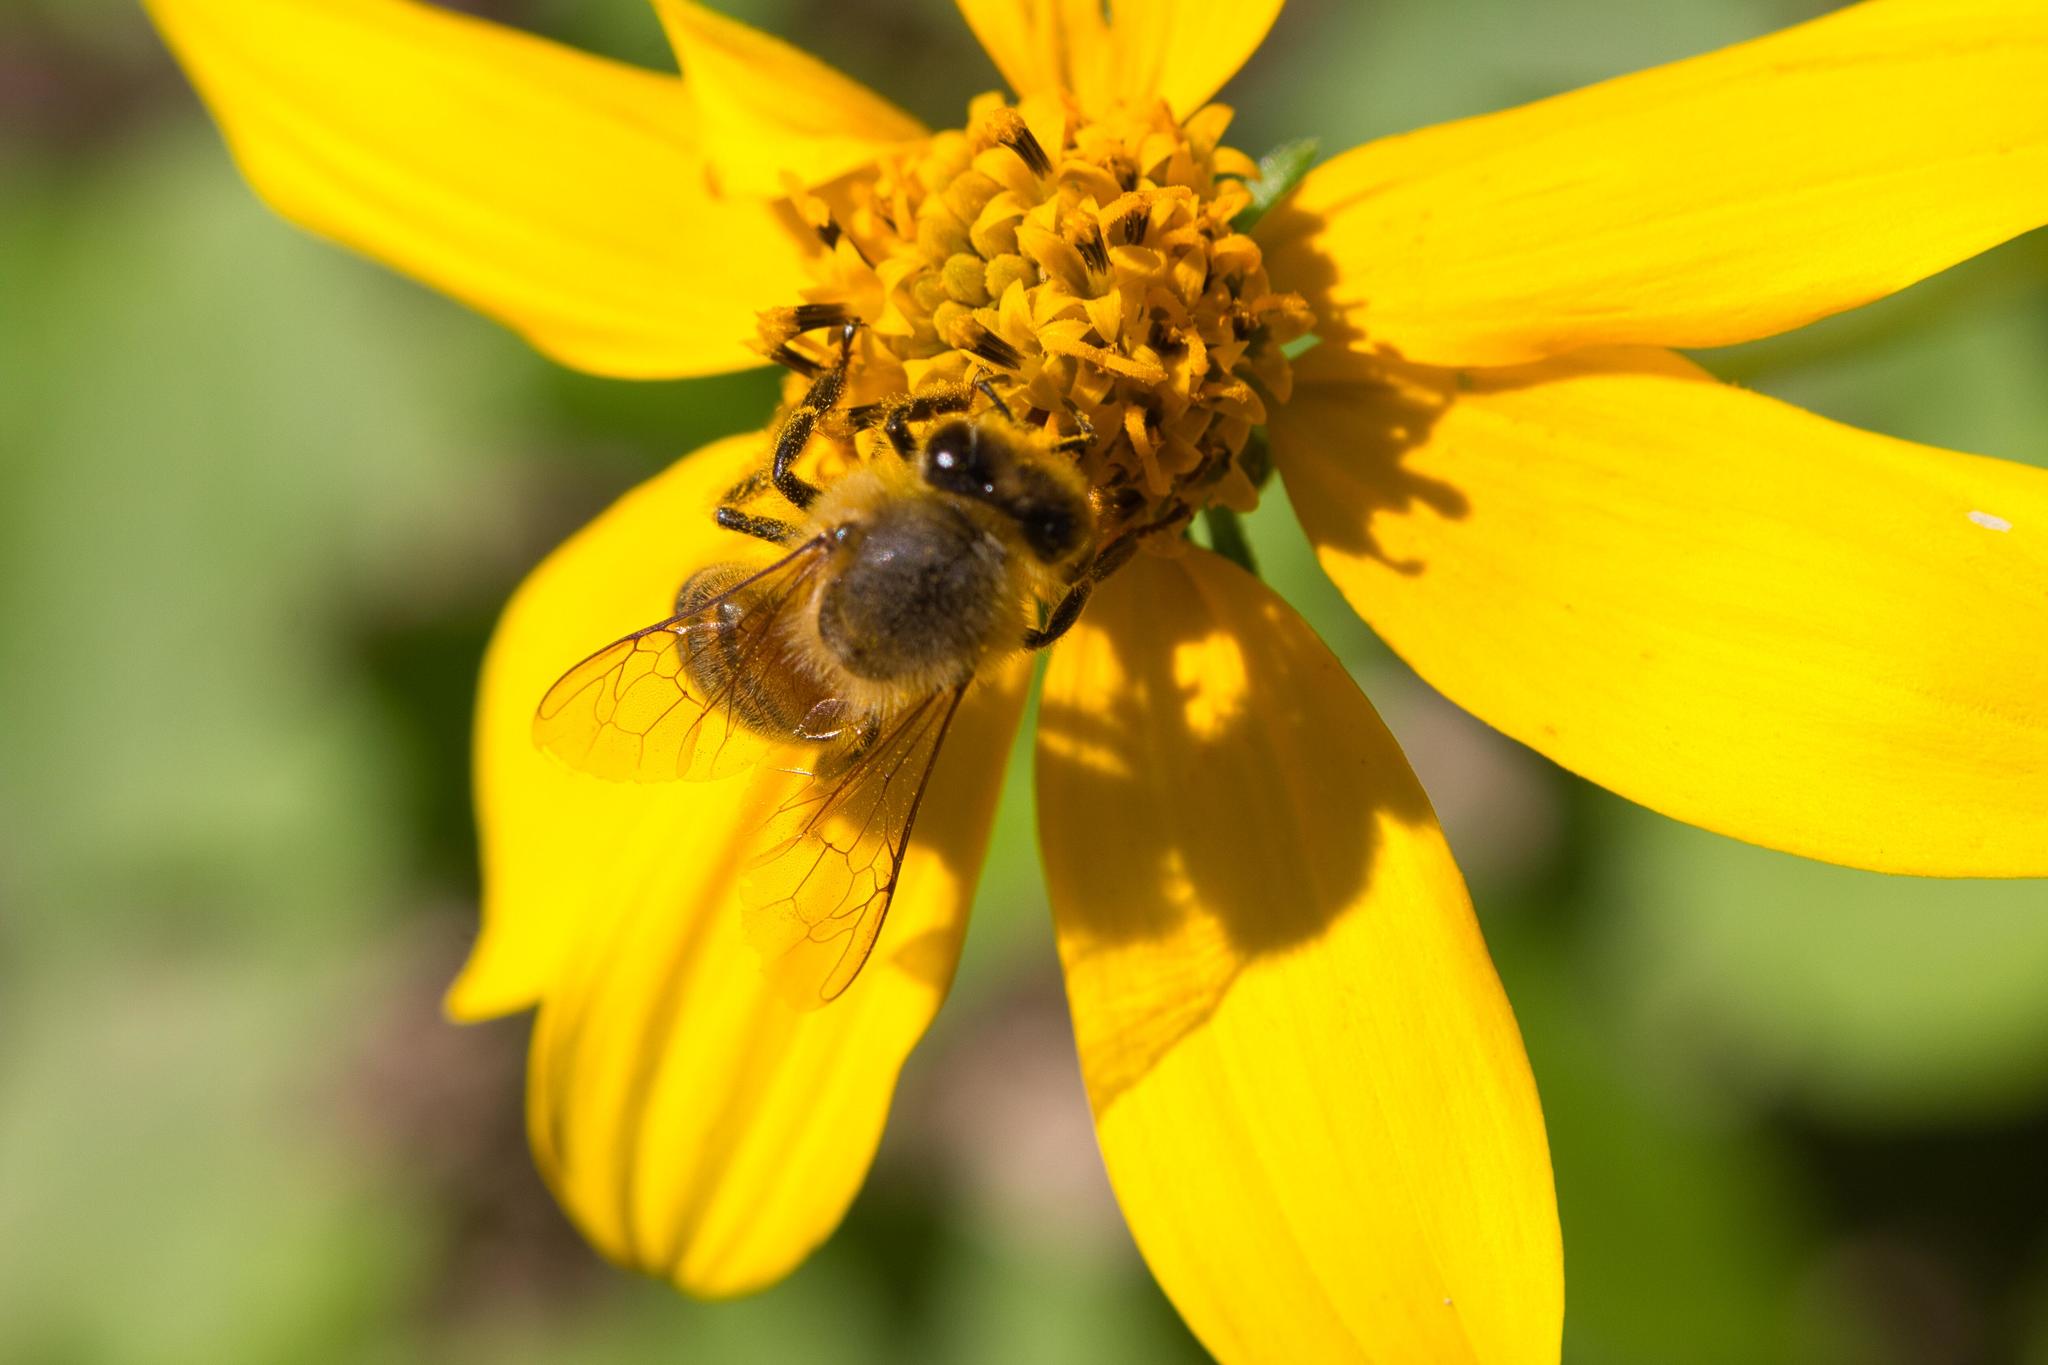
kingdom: Animalia
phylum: Arthropoda
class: Insecta
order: Hymenoptera
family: Apidae
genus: Apis
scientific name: Apis mellifera
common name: Honey bee
